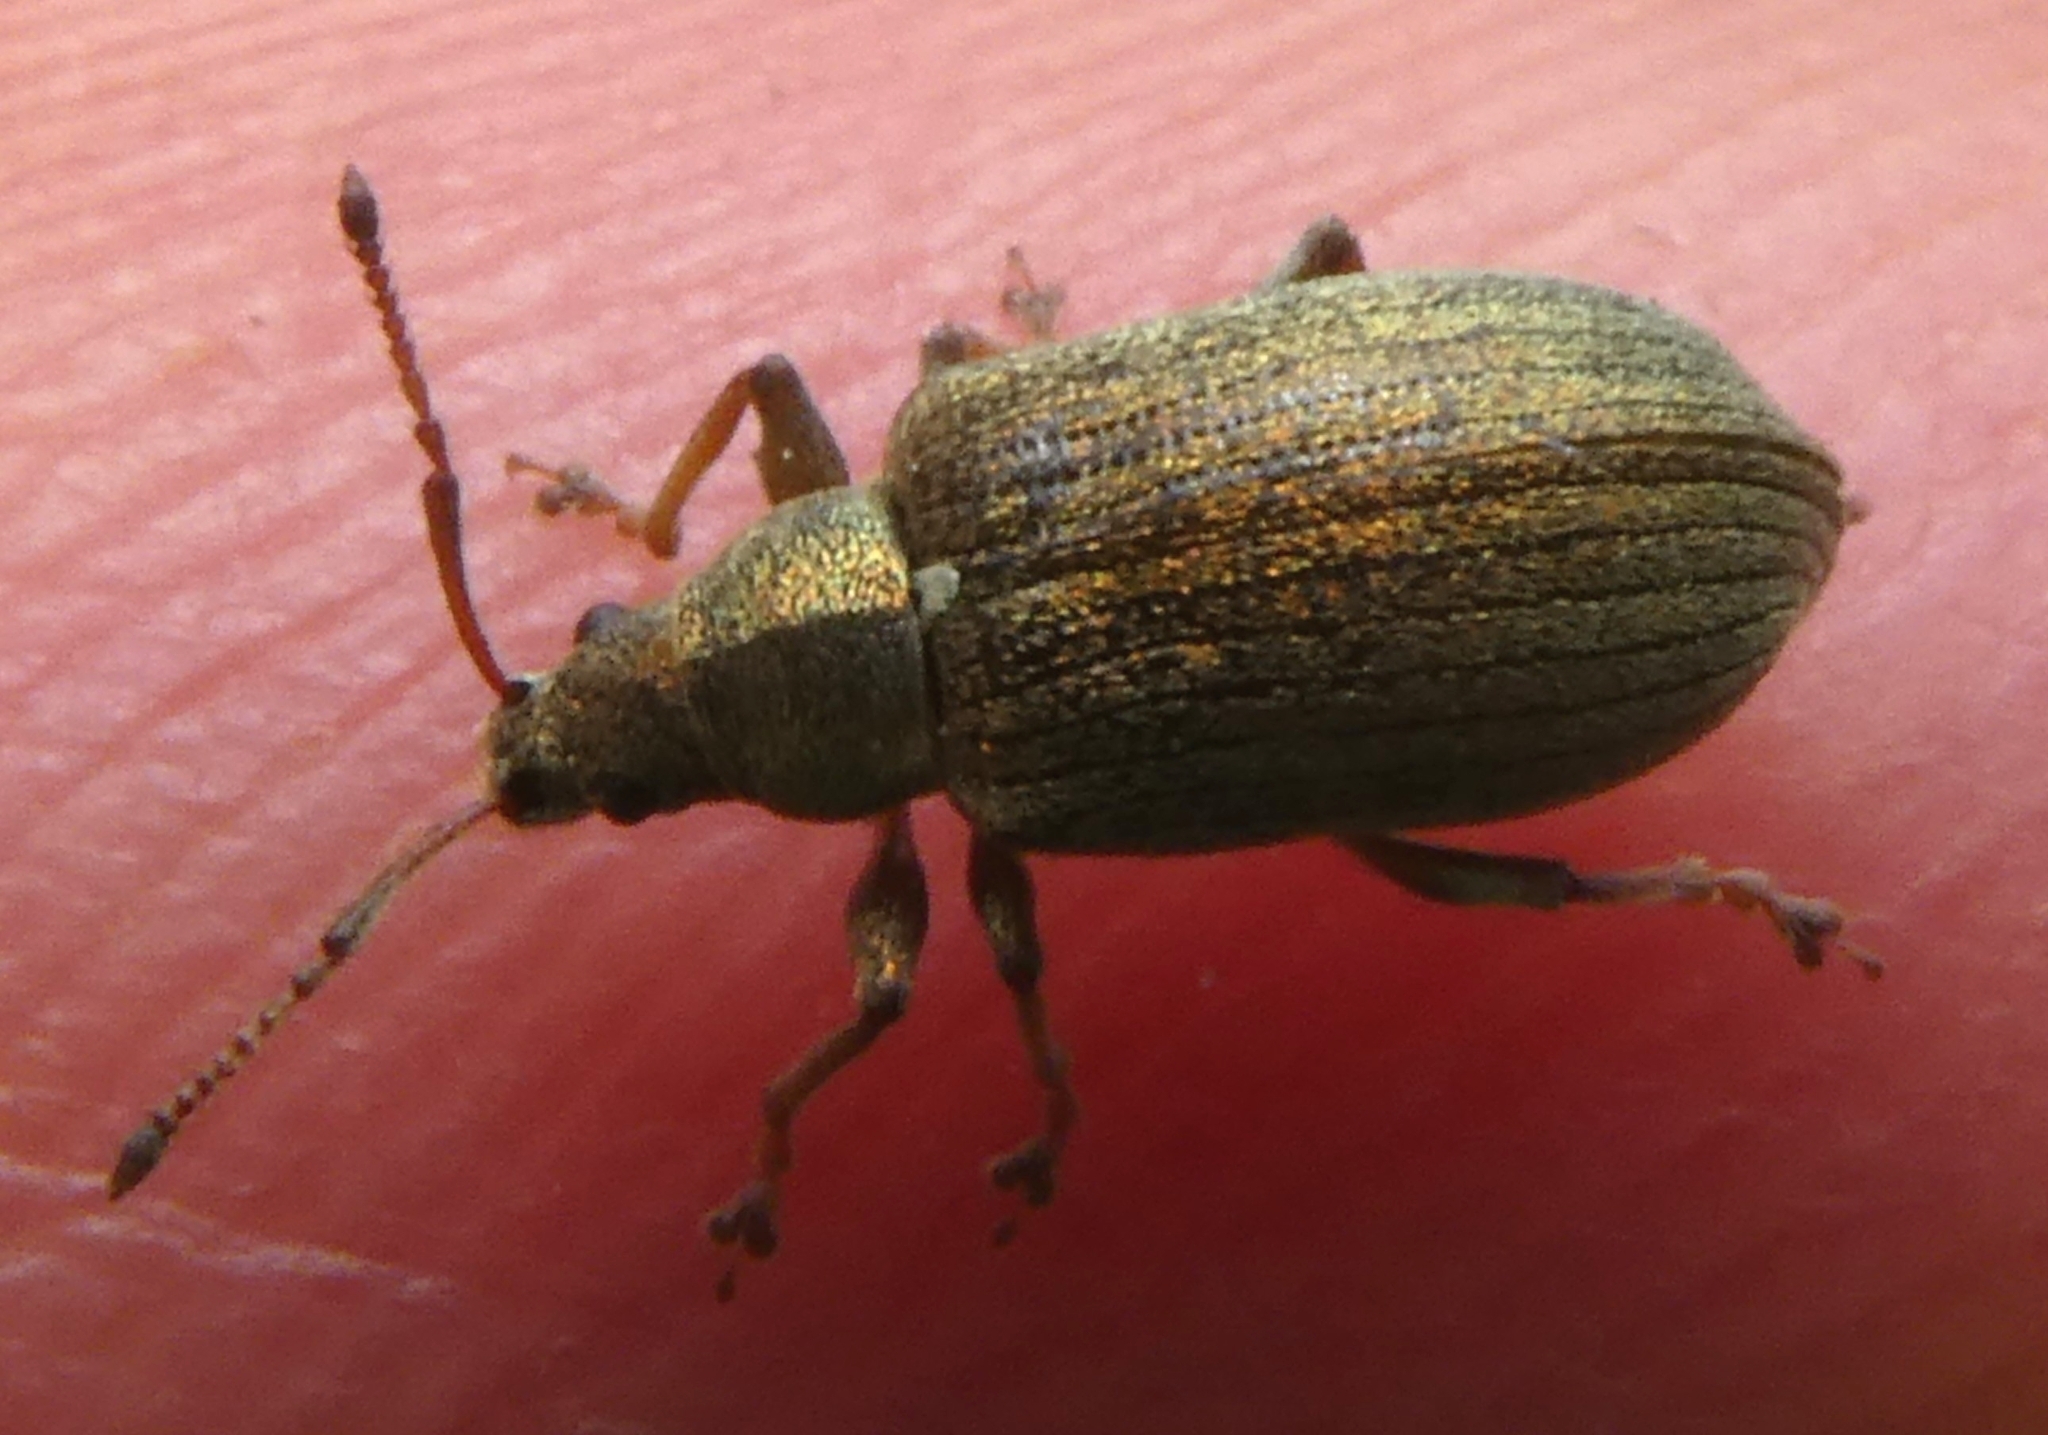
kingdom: Animalia
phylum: Arthropoda
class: Insecta
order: Coleoptera
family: Curculionidae
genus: Phyllobius
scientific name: Phyllobius pyri
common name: Common leaf weevil
